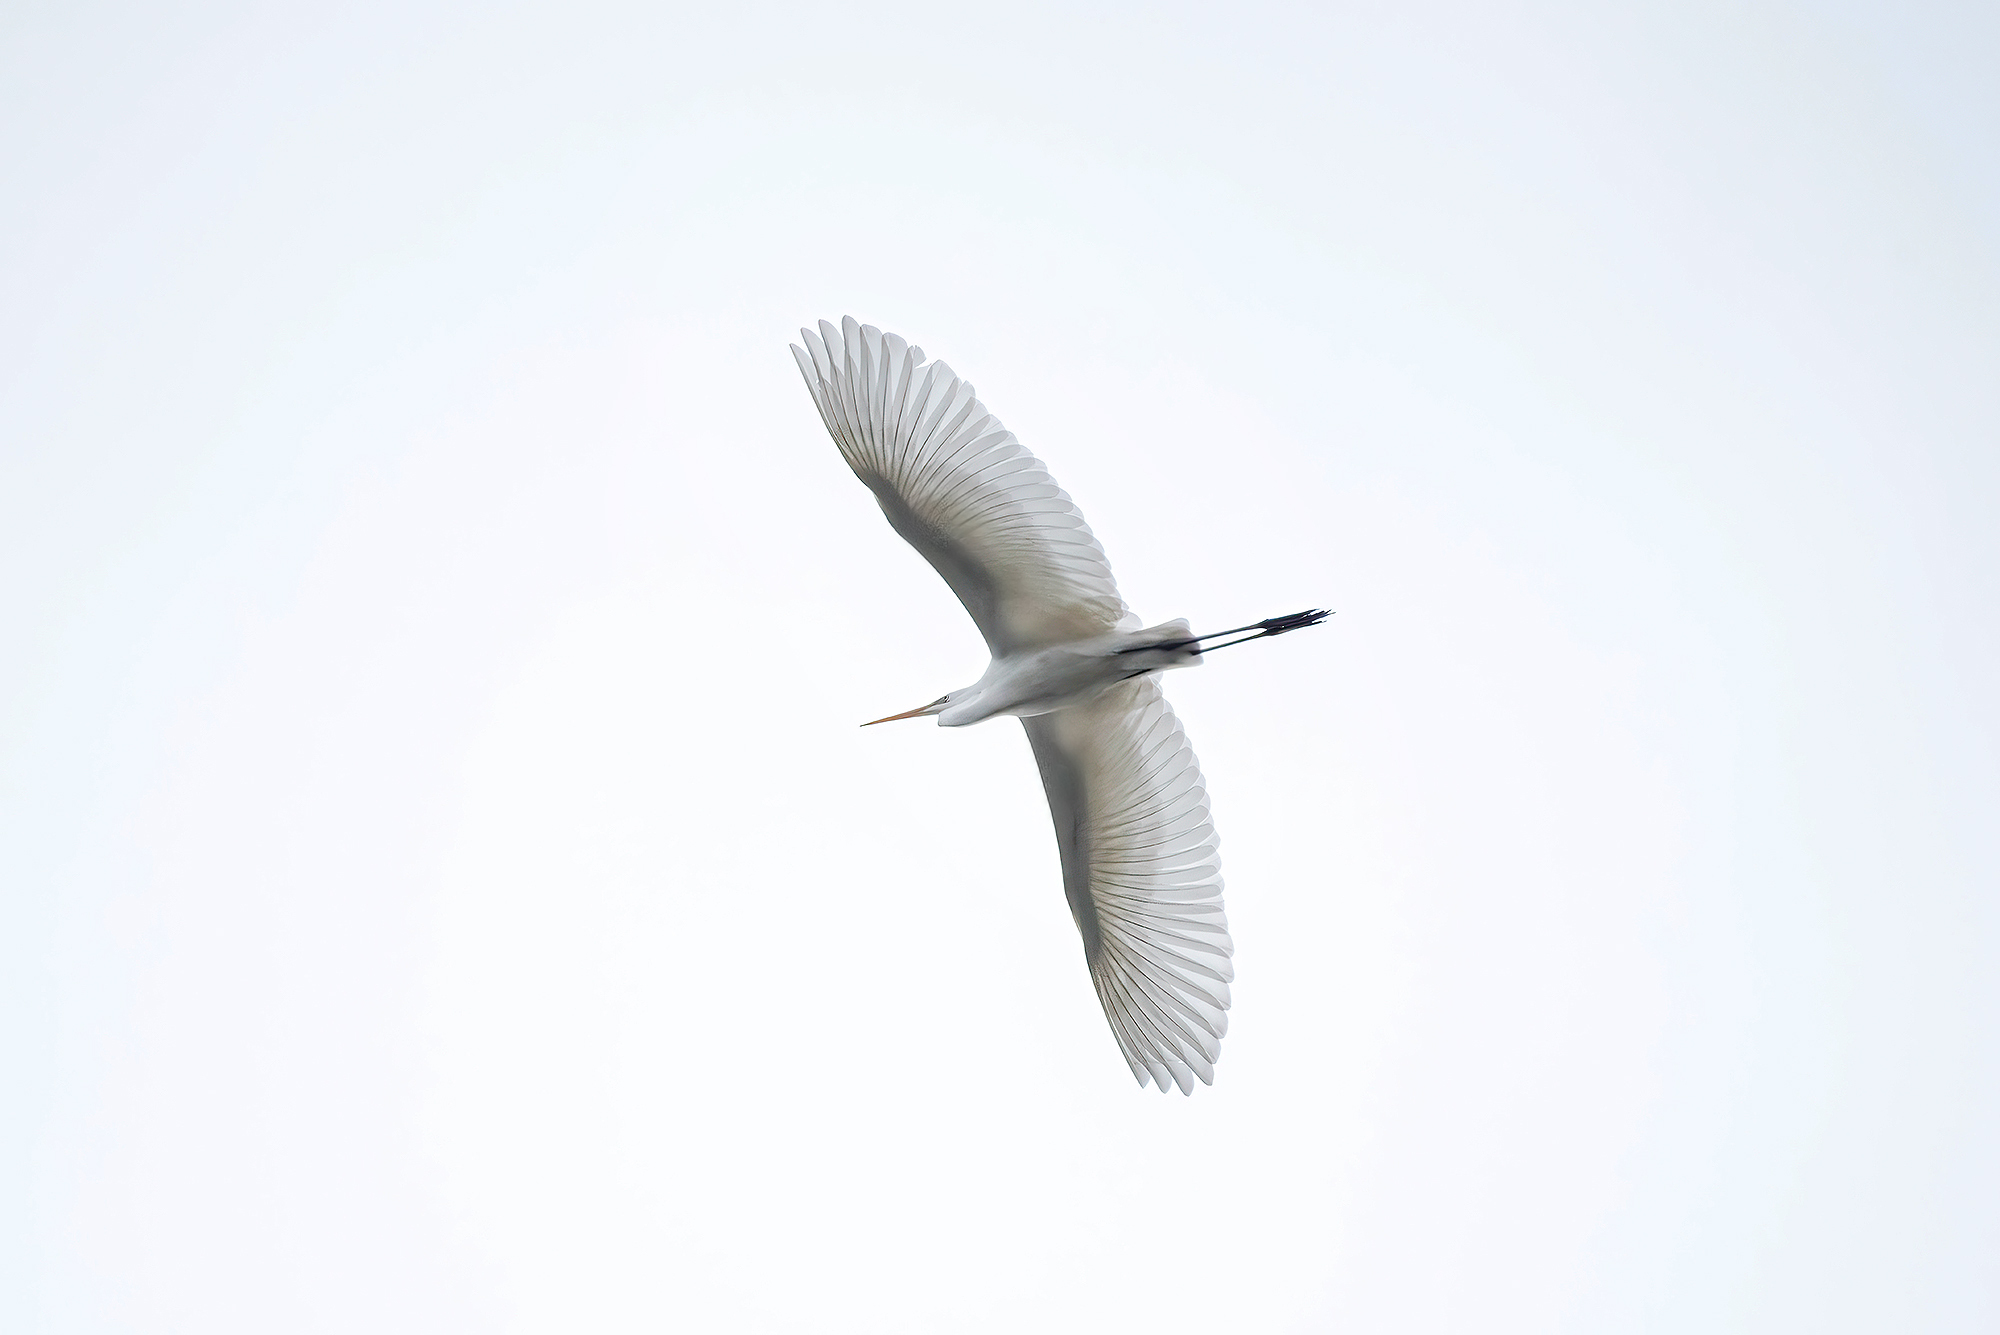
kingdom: Animalia
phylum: Chordata
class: Aves
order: Pelecaniformes
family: Ardeidae
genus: Ardea
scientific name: Ardea alba
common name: Great egret
